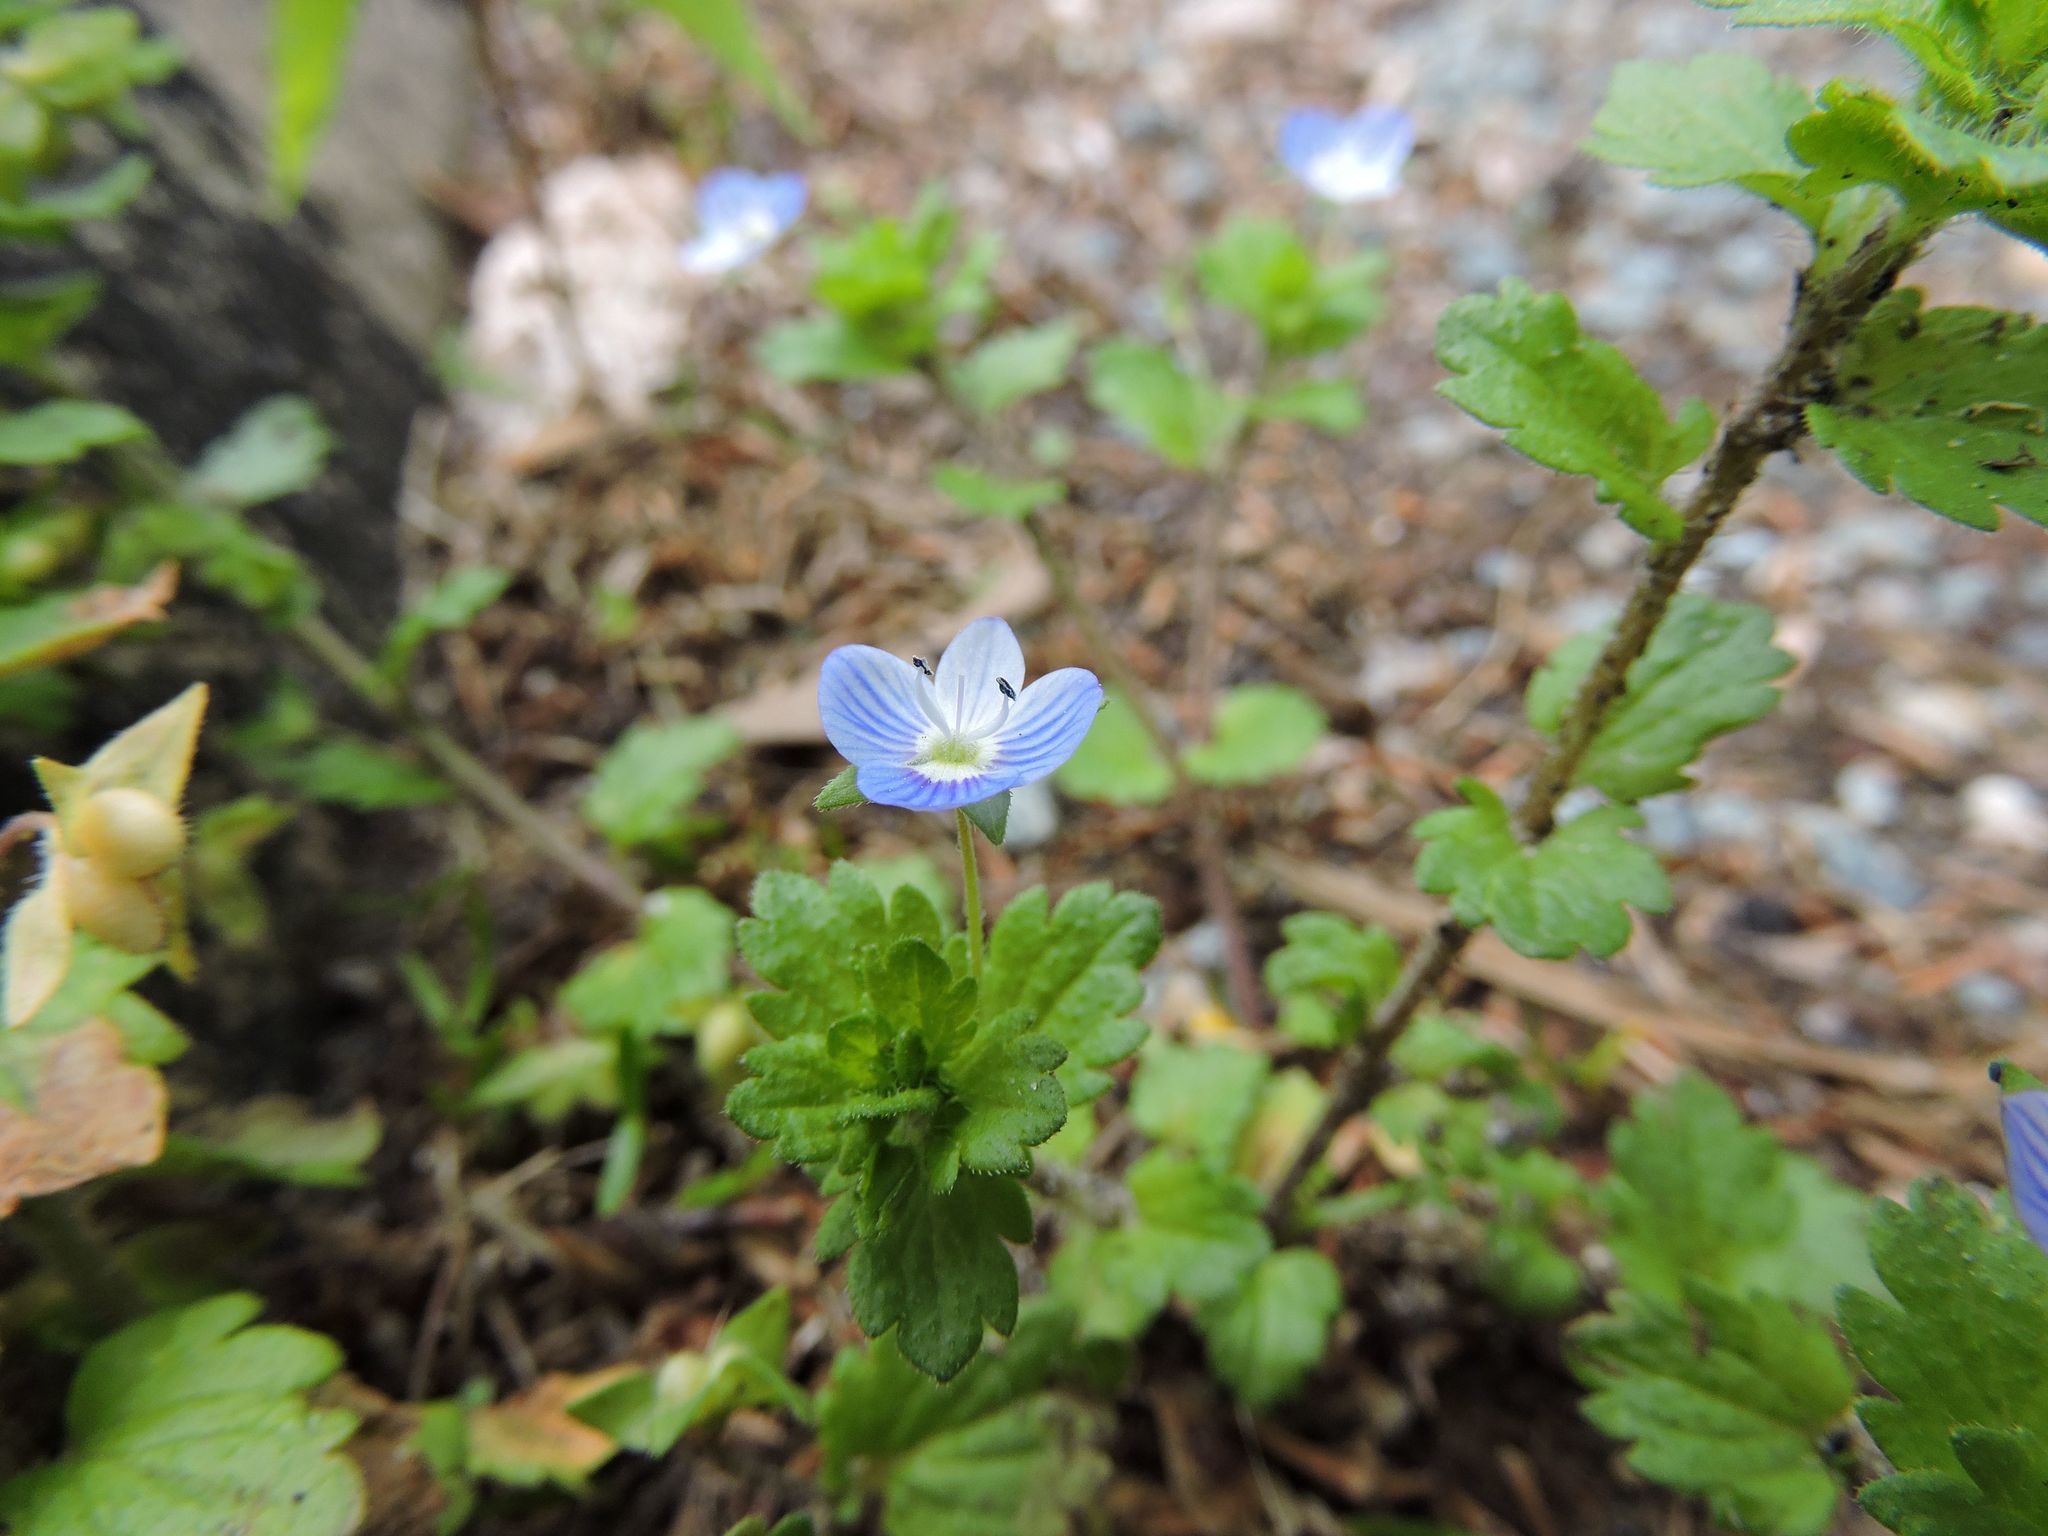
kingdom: Plantae
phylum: Tracheophyta
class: Magnoliopsida
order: Lamiales
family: Plantaginaceae
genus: Veronica
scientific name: Veronica persica
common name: Common field-speedwell
